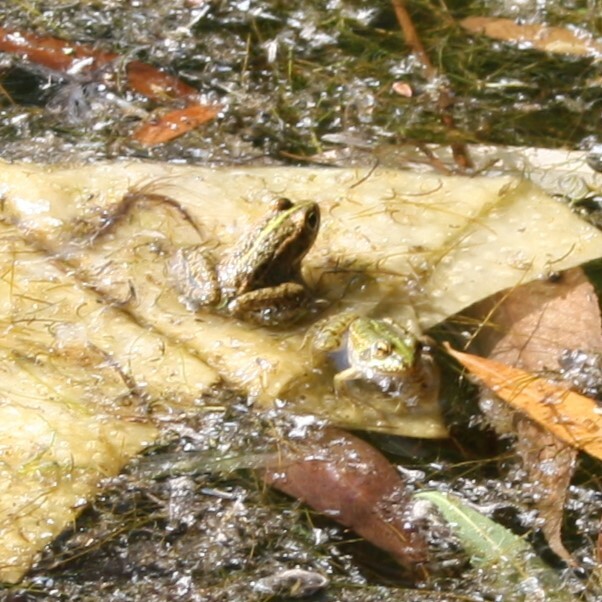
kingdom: Animalia
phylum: Chordata
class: Amphibia
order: Anura
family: Ranidae
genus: Pelophylax
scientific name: Pelophylax ridibundus
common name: Marsh frog
